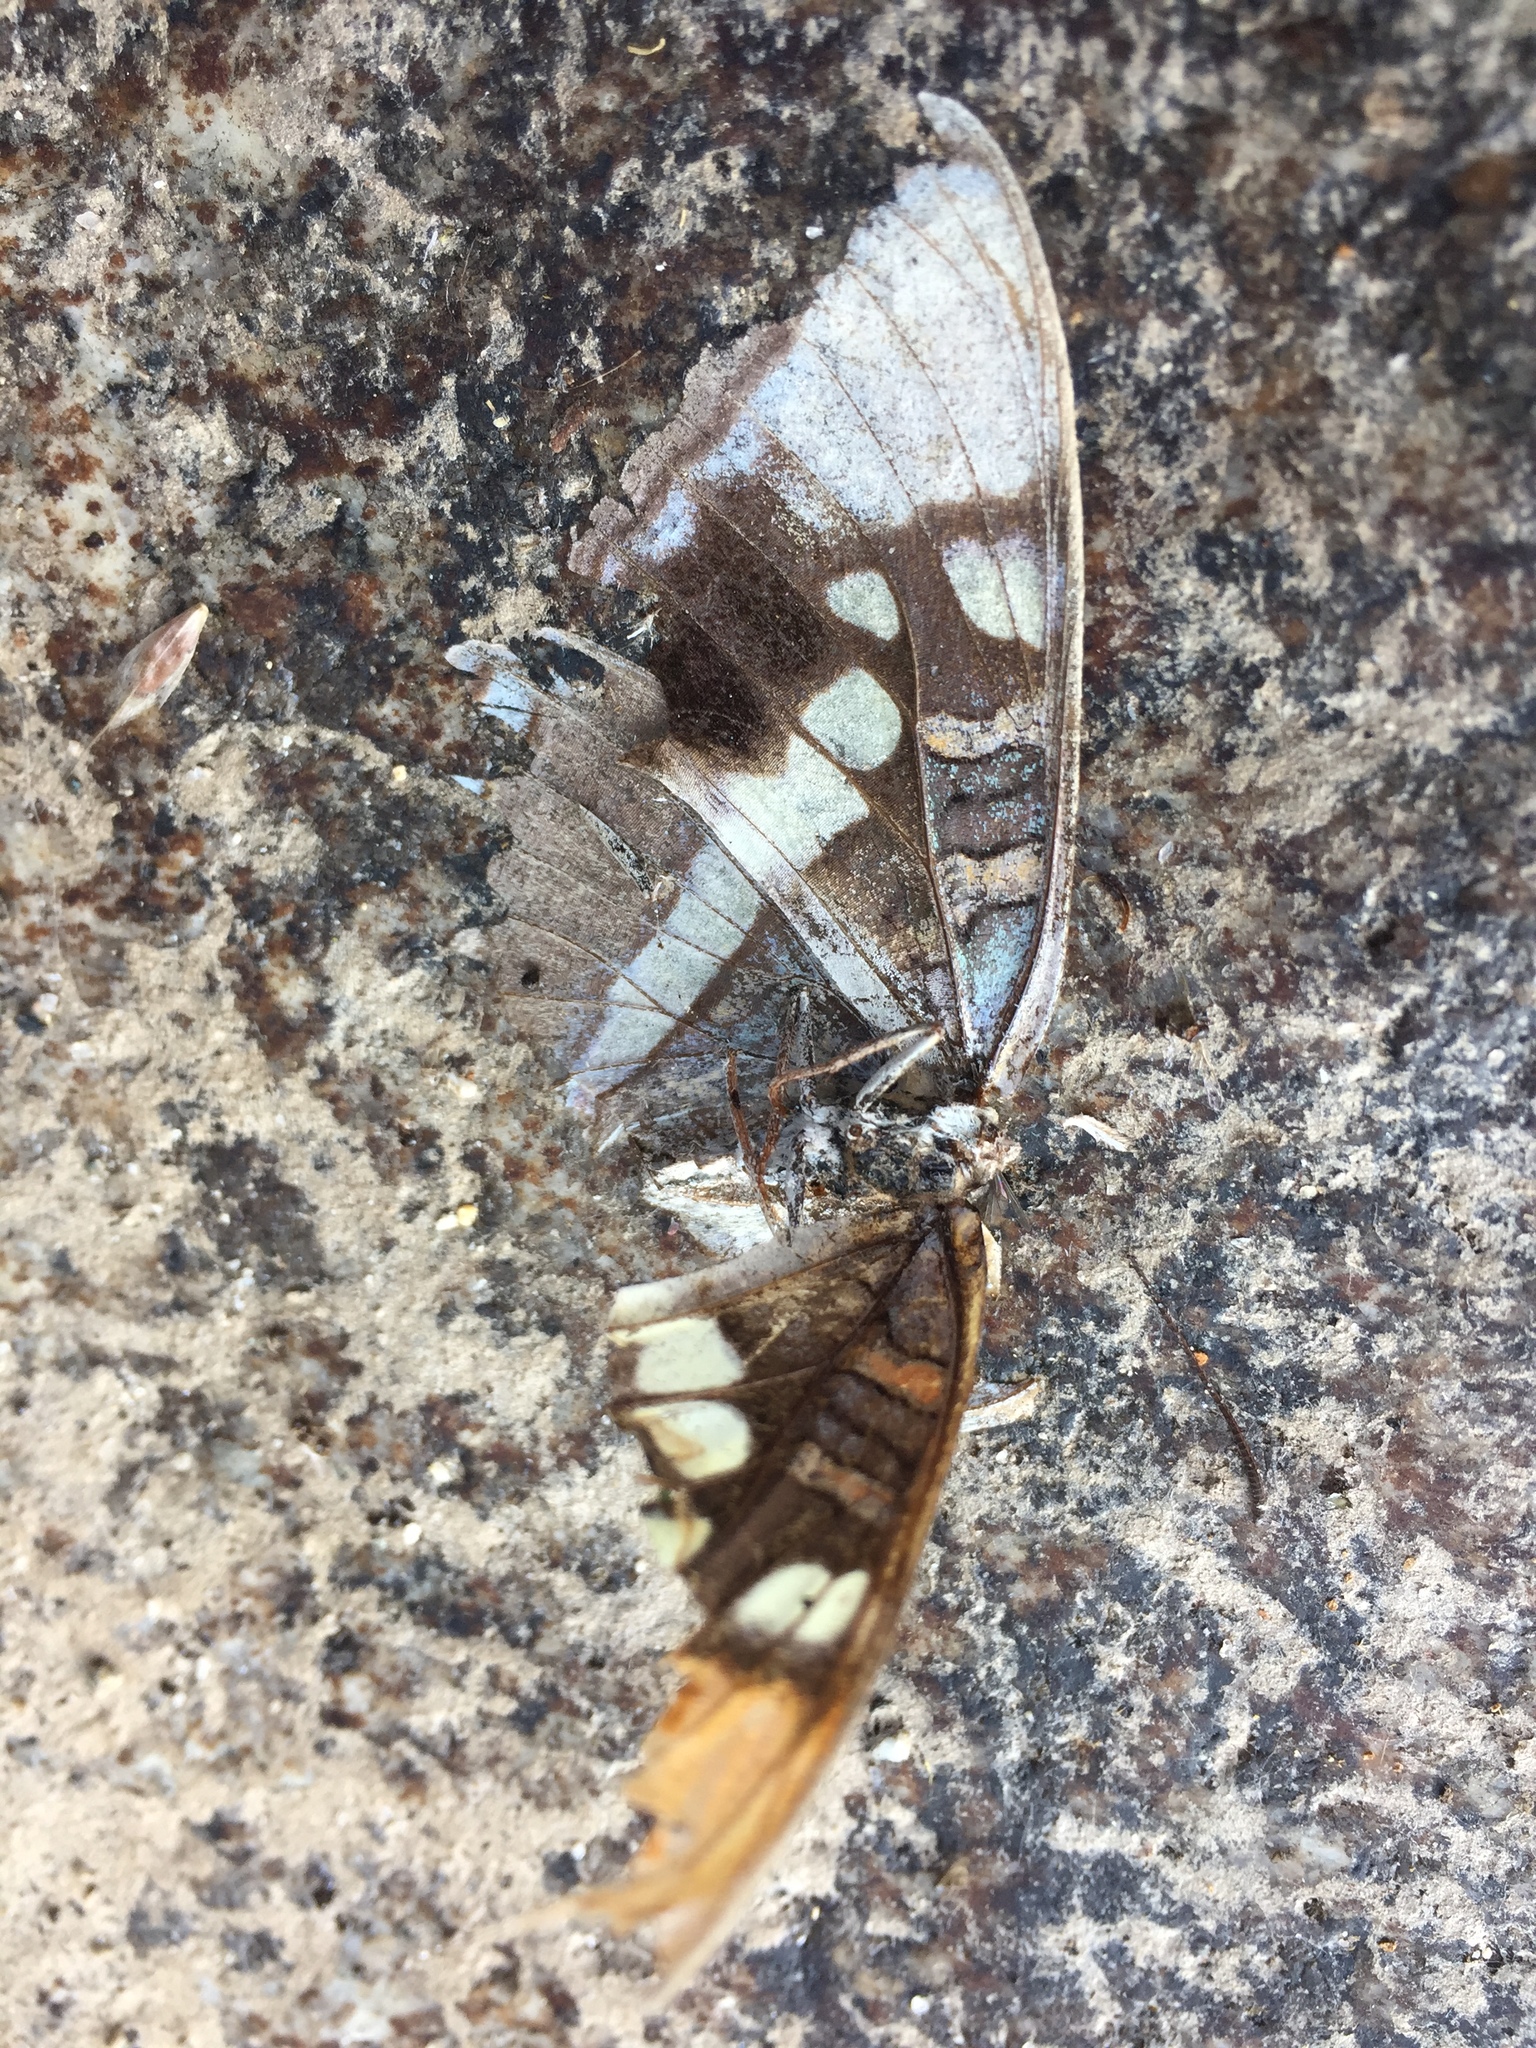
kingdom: Animalia
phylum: Arthropoda
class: Insecta
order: Lepidoptera
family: Nymphalidae
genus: Limenitis
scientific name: Limenitis bredowii
